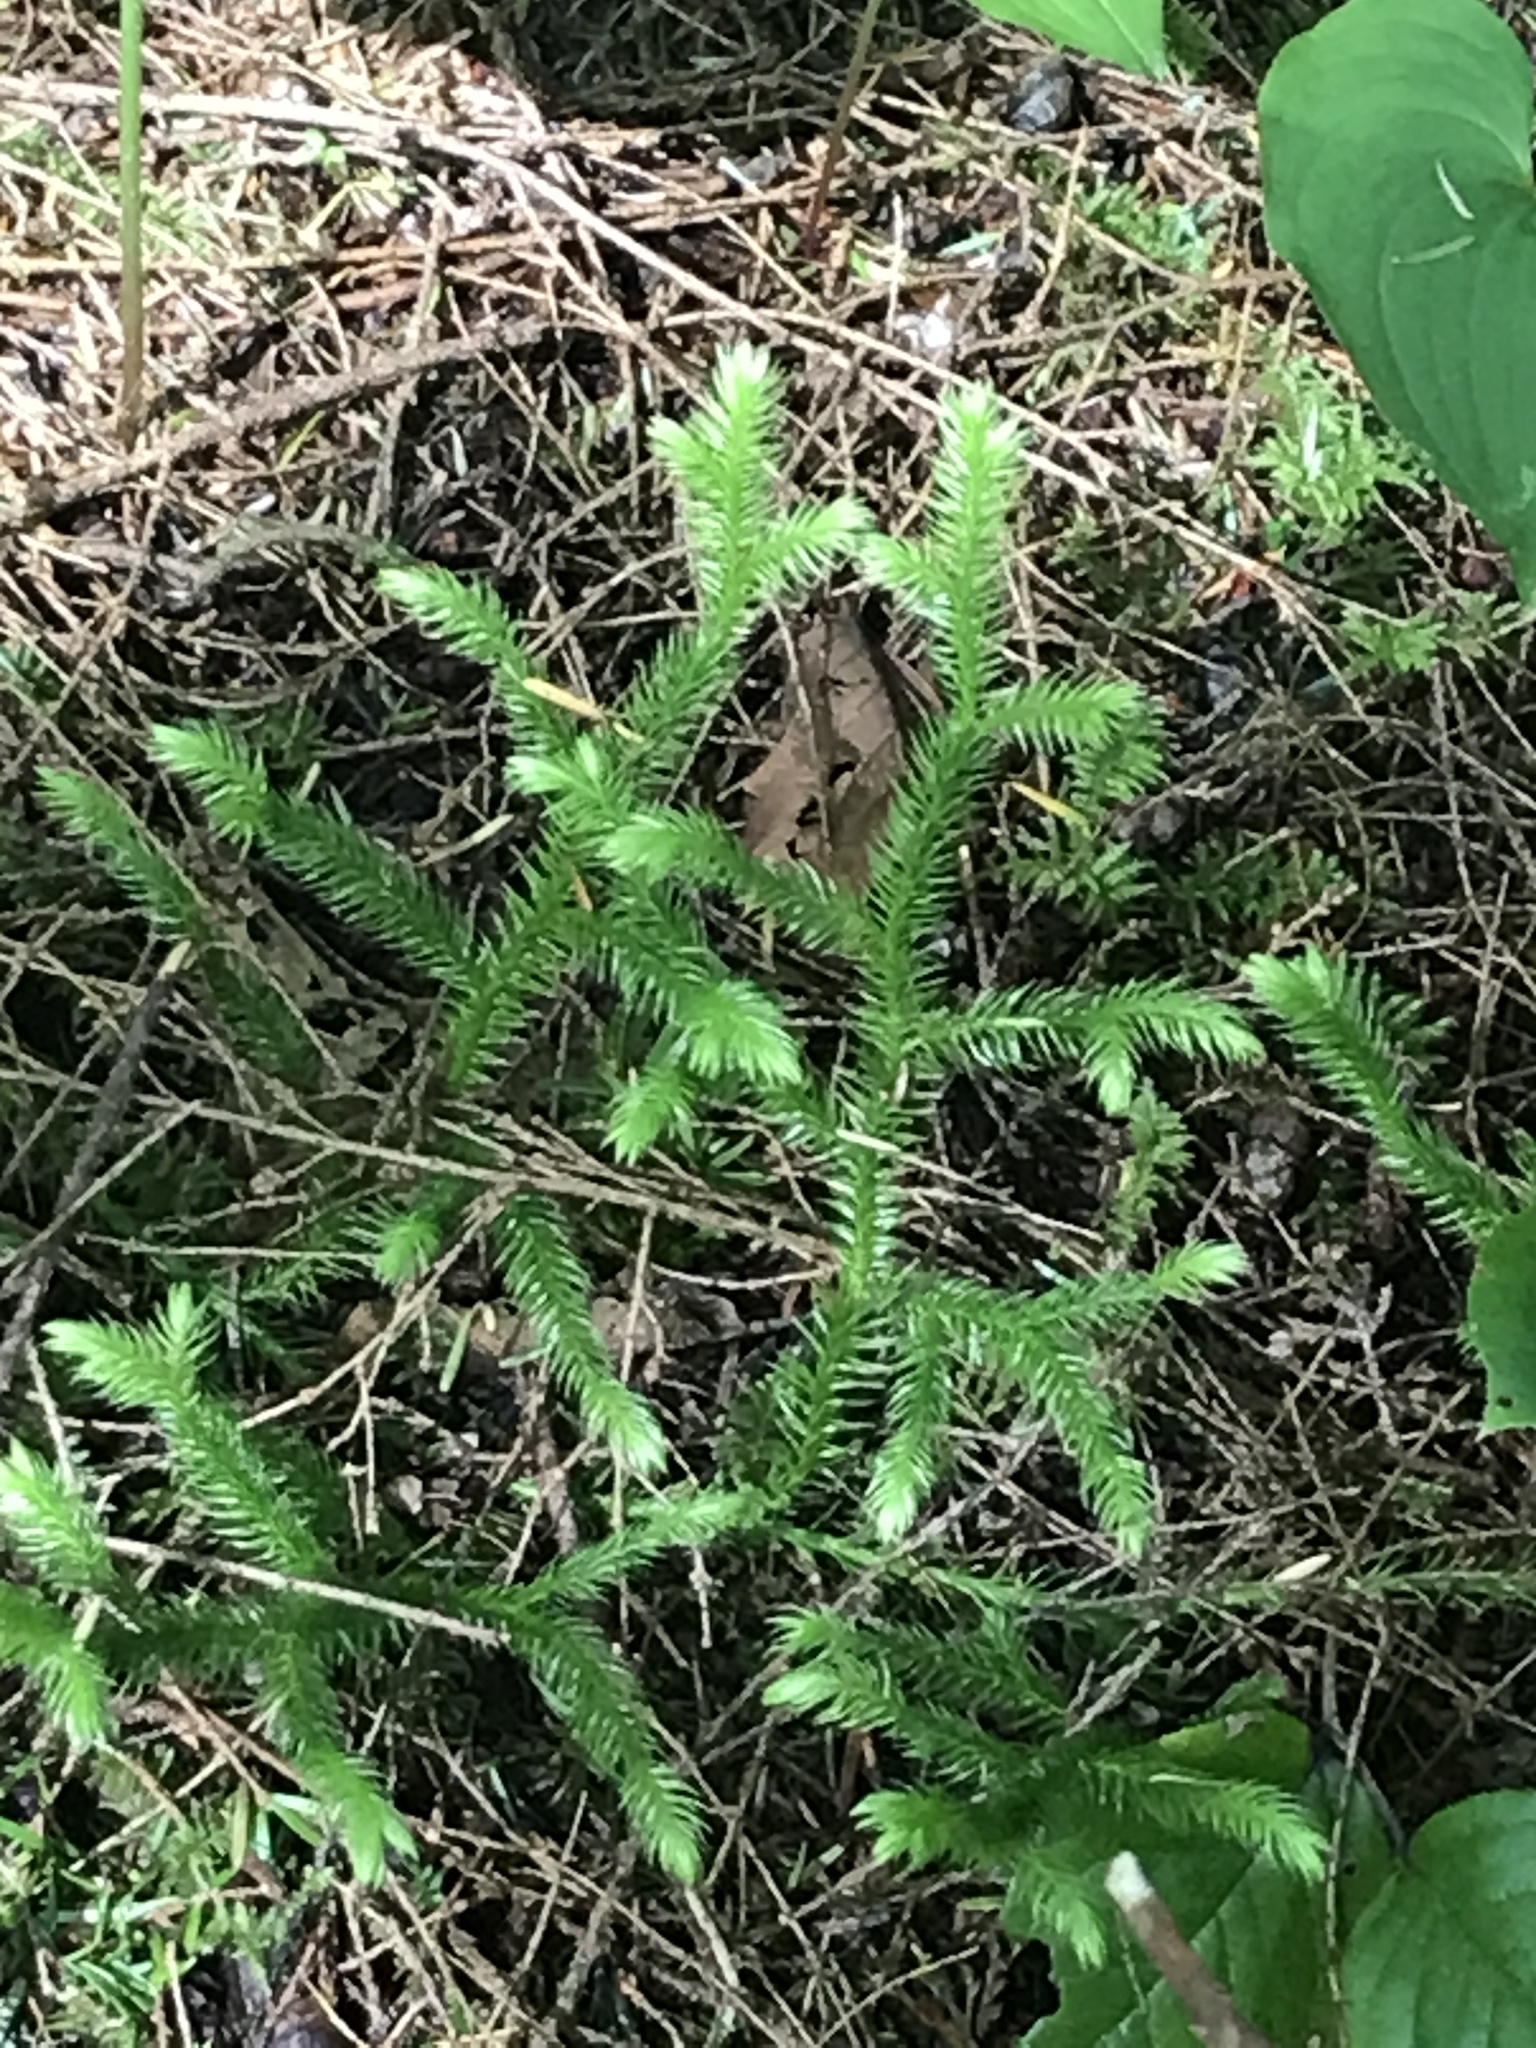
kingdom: Plantae
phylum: Tracheophyta
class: Lycopodiopsida
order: Lycopodiales
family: Lycopodiaceae
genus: Lycopodium
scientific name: Lycopodium clavatum
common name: Stag's-horn clubmoss
